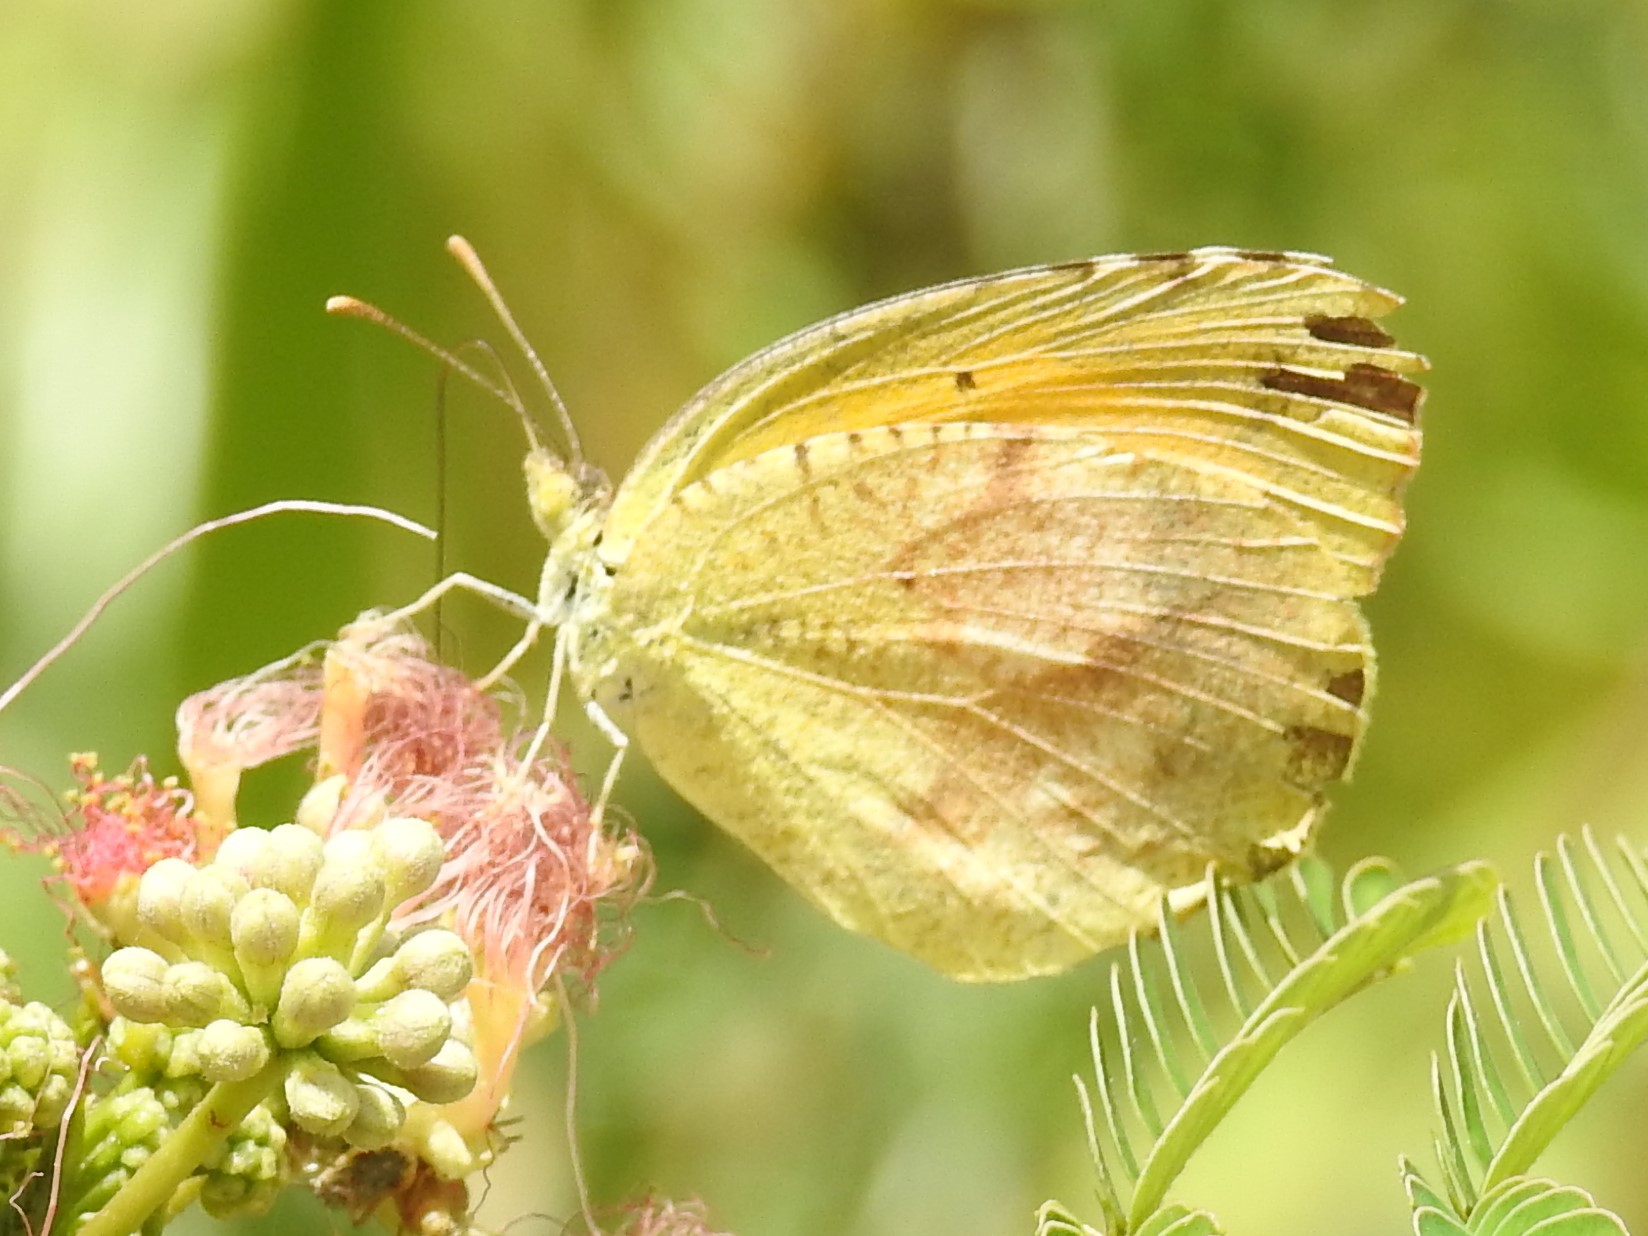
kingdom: Animalia
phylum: Arthropoda
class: Insecta
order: Lepidoptera
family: Pieridae
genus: Abaeis
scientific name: Abaeis nicippe
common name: Sleepy orange
